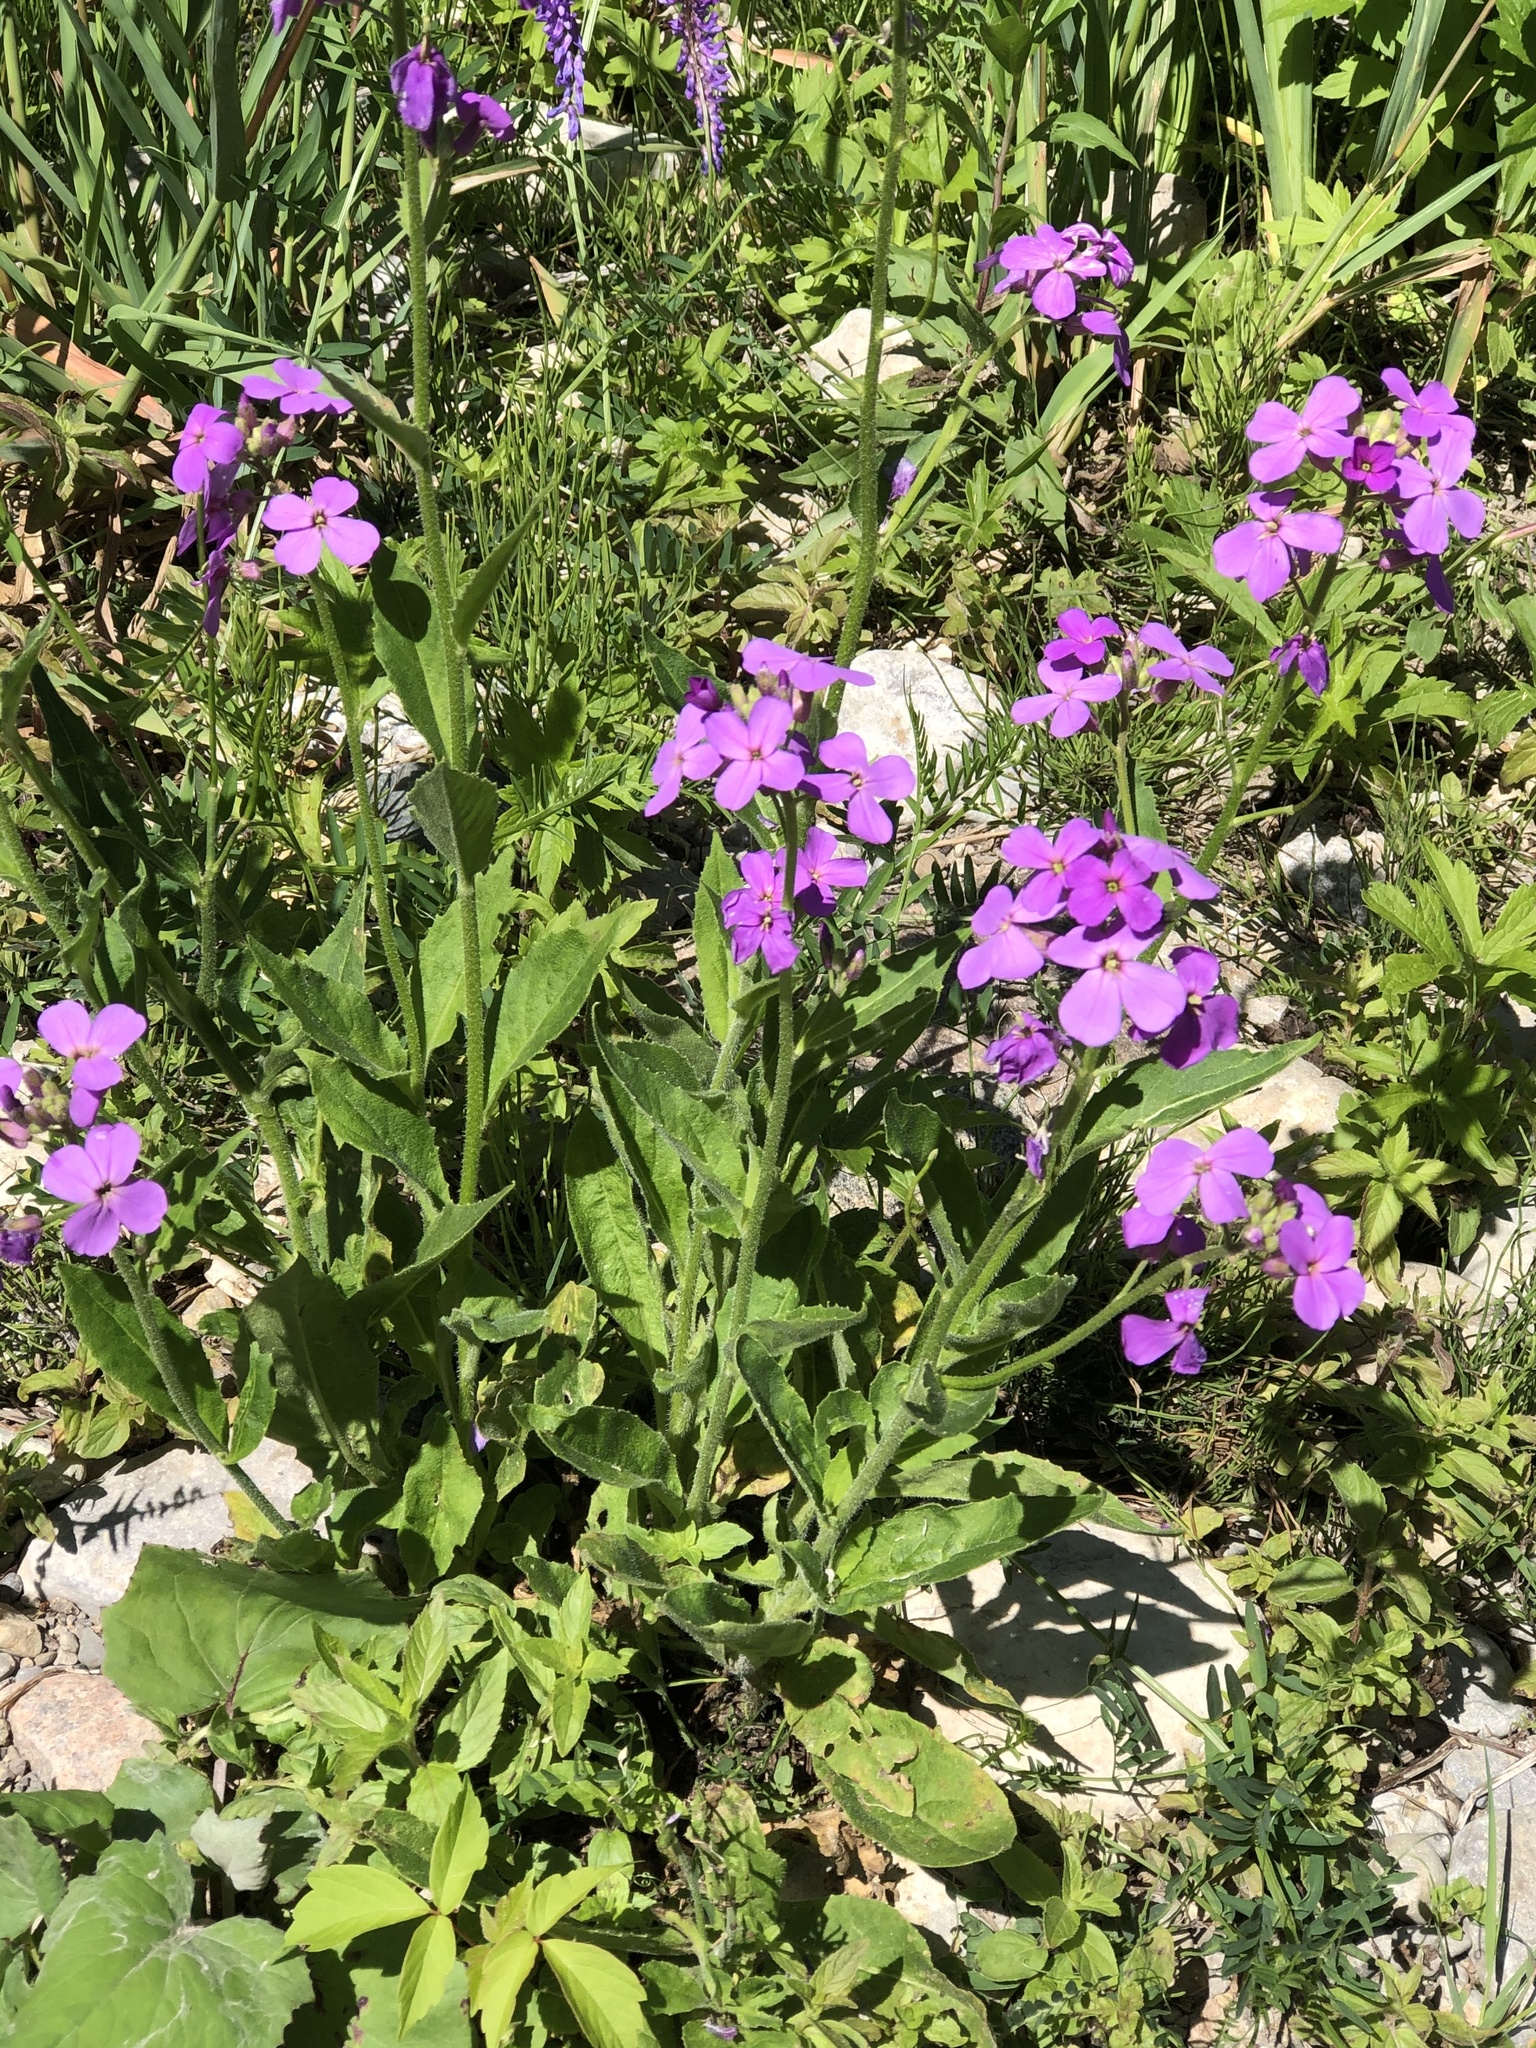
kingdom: Plantae
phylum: Tracheophyta
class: Magnoliopsida
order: Brassicales
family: Brassicaceae
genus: Hesperis
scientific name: Hesperis matronalis
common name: Dame's-violet
